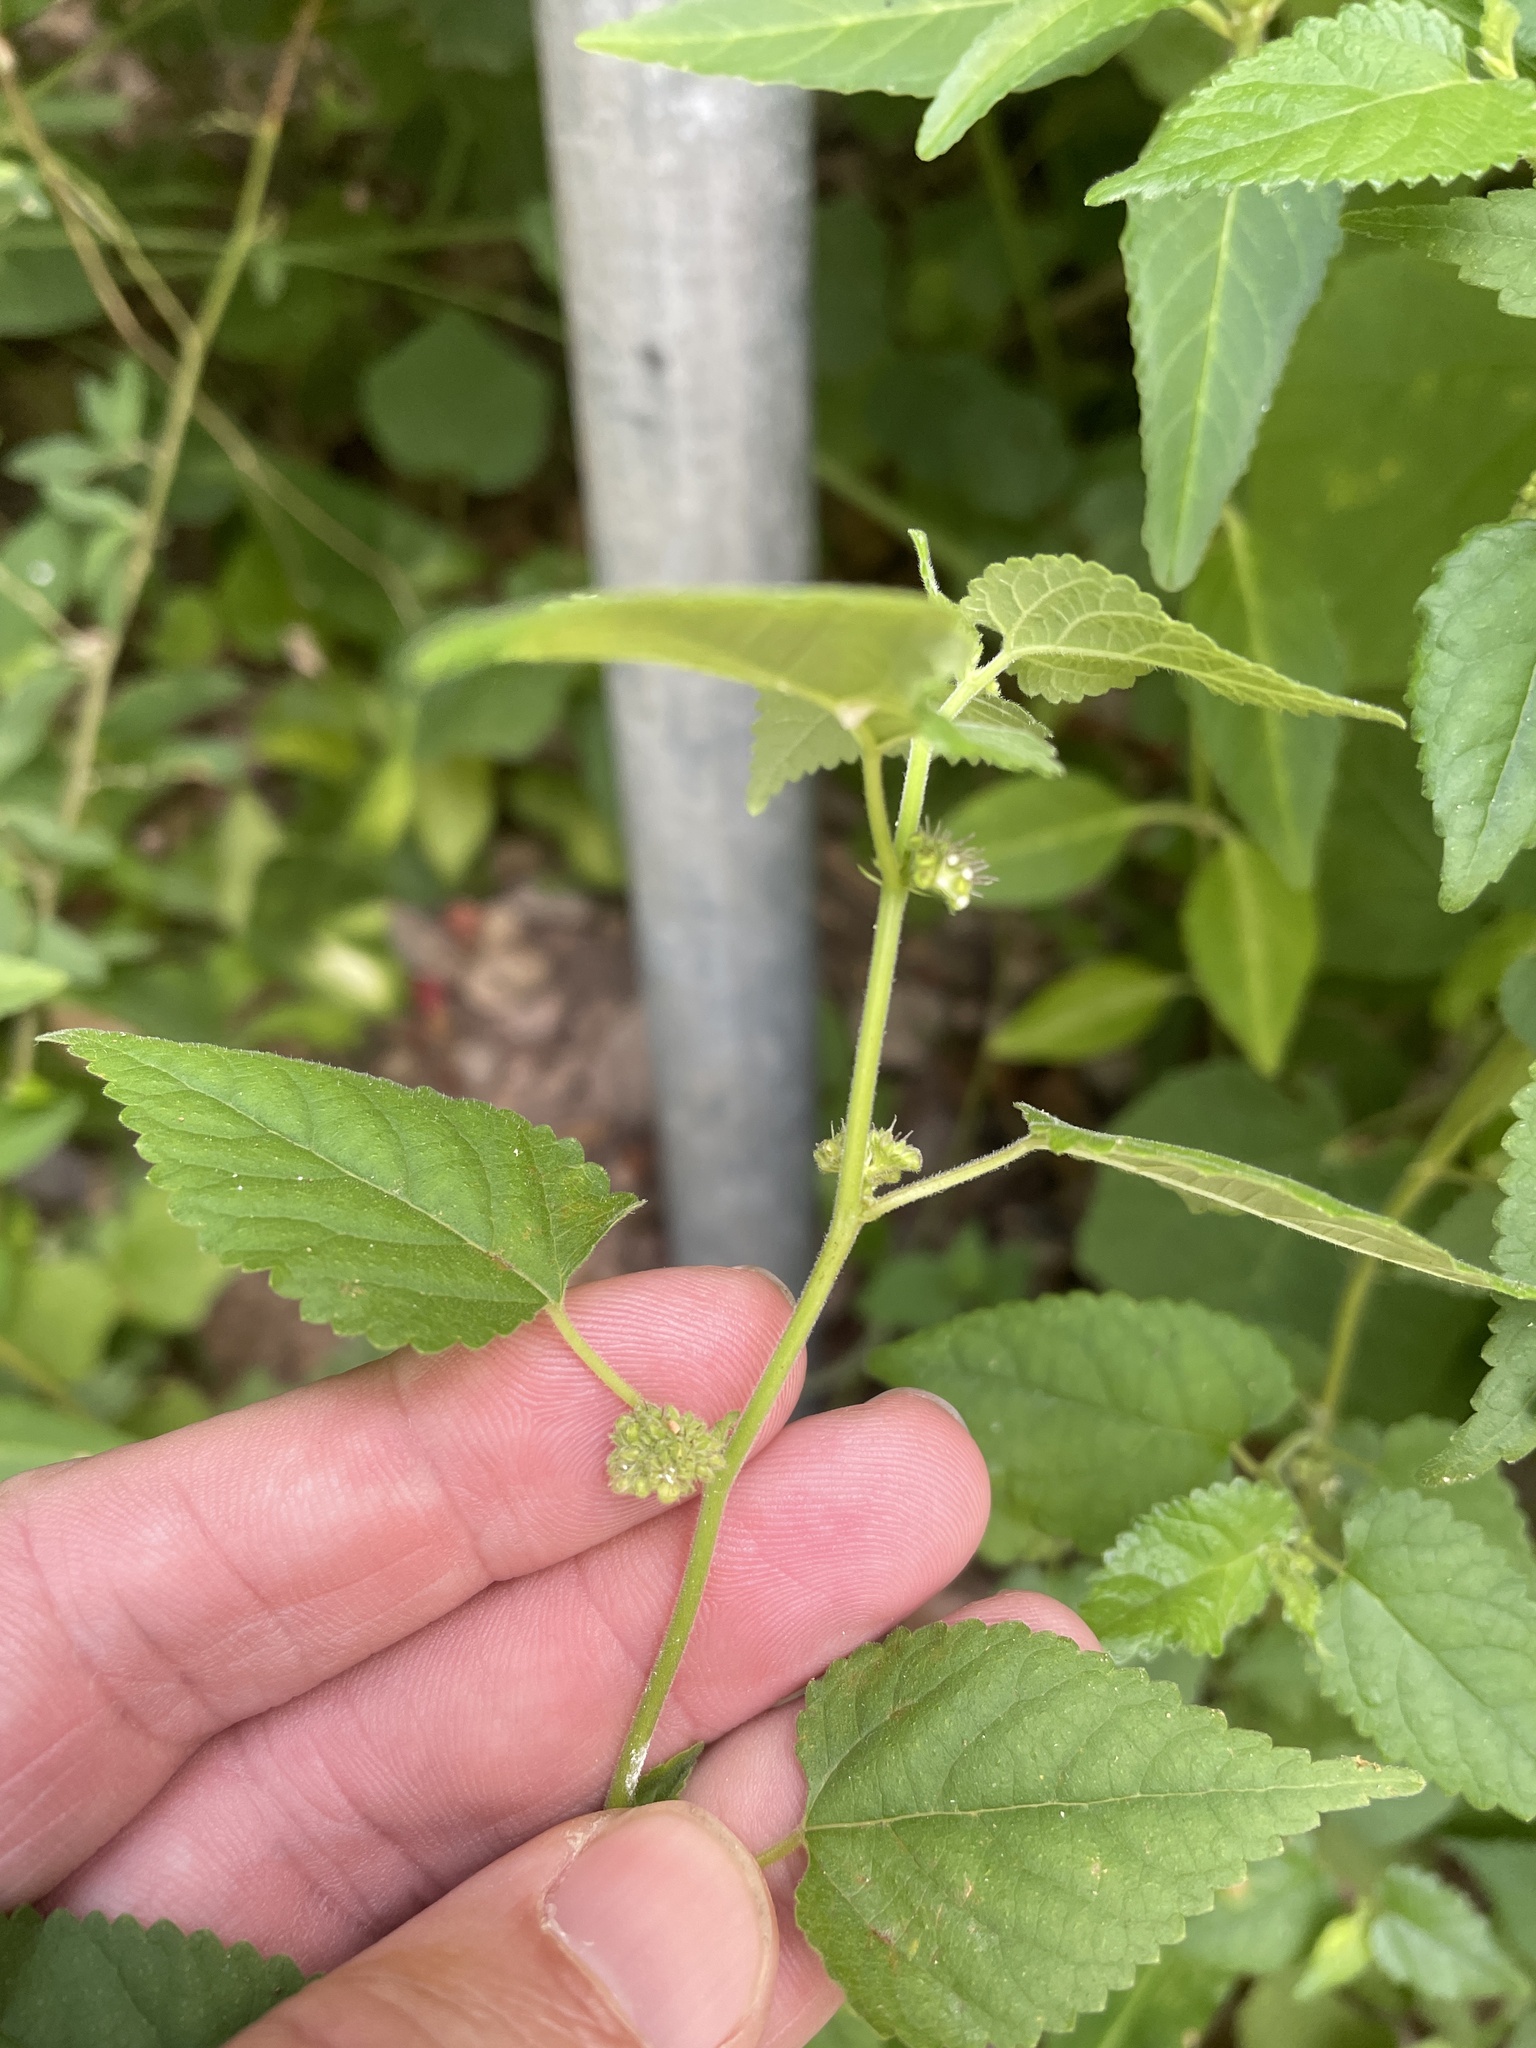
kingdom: Plantae
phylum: Tracheophyta
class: Magnoliopsida
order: Rosales
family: Moraceae
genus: Fatoua
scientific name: Fatoua villosa
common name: Hairy crabweed
